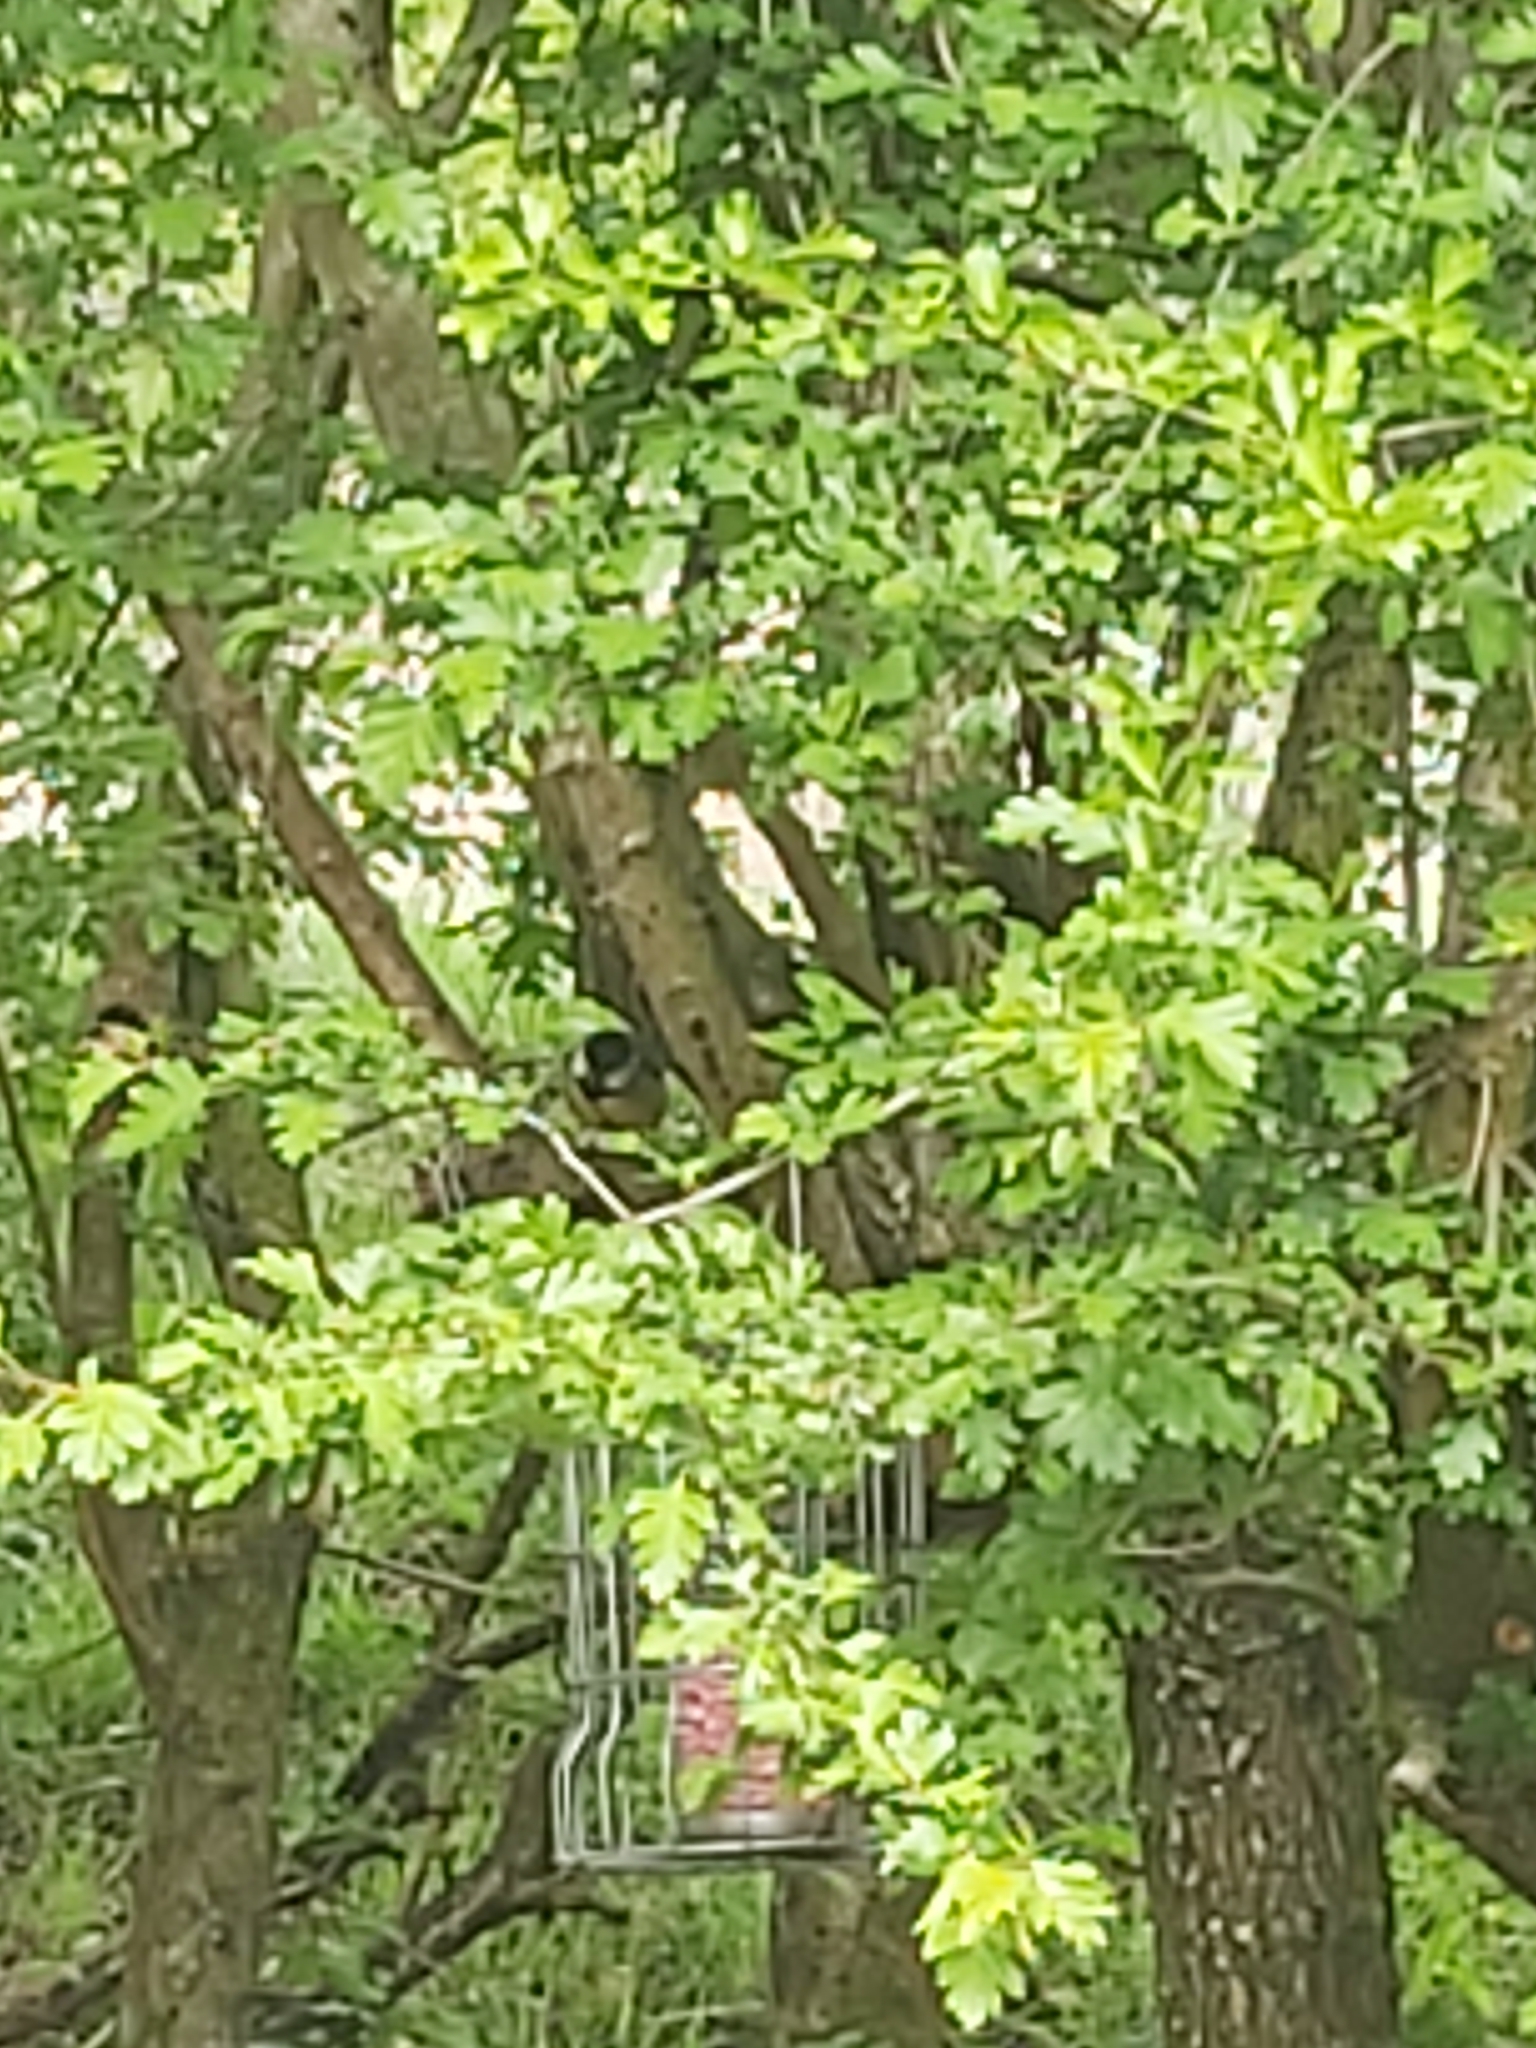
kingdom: Animalia
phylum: Chordata
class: Aves
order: Passeriformes
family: Paridae
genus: Parus
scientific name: Parus major
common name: Great tit
